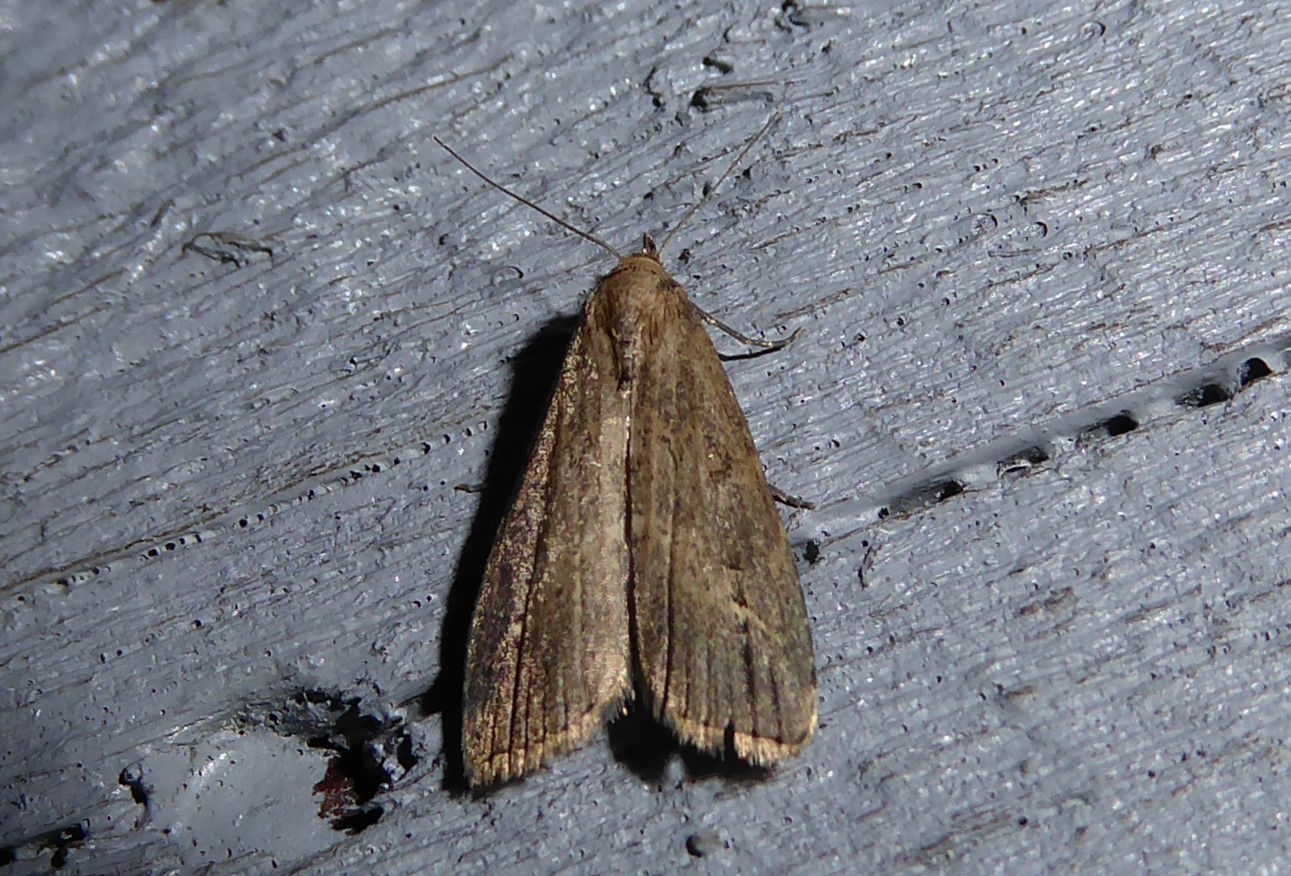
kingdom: Animalia
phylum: Arthropoda
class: Insecta
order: Lepidoptera
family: Erebidae
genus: Schrankia
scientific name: Schrankia costaestrigalis
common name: Pinion-streaked snout
